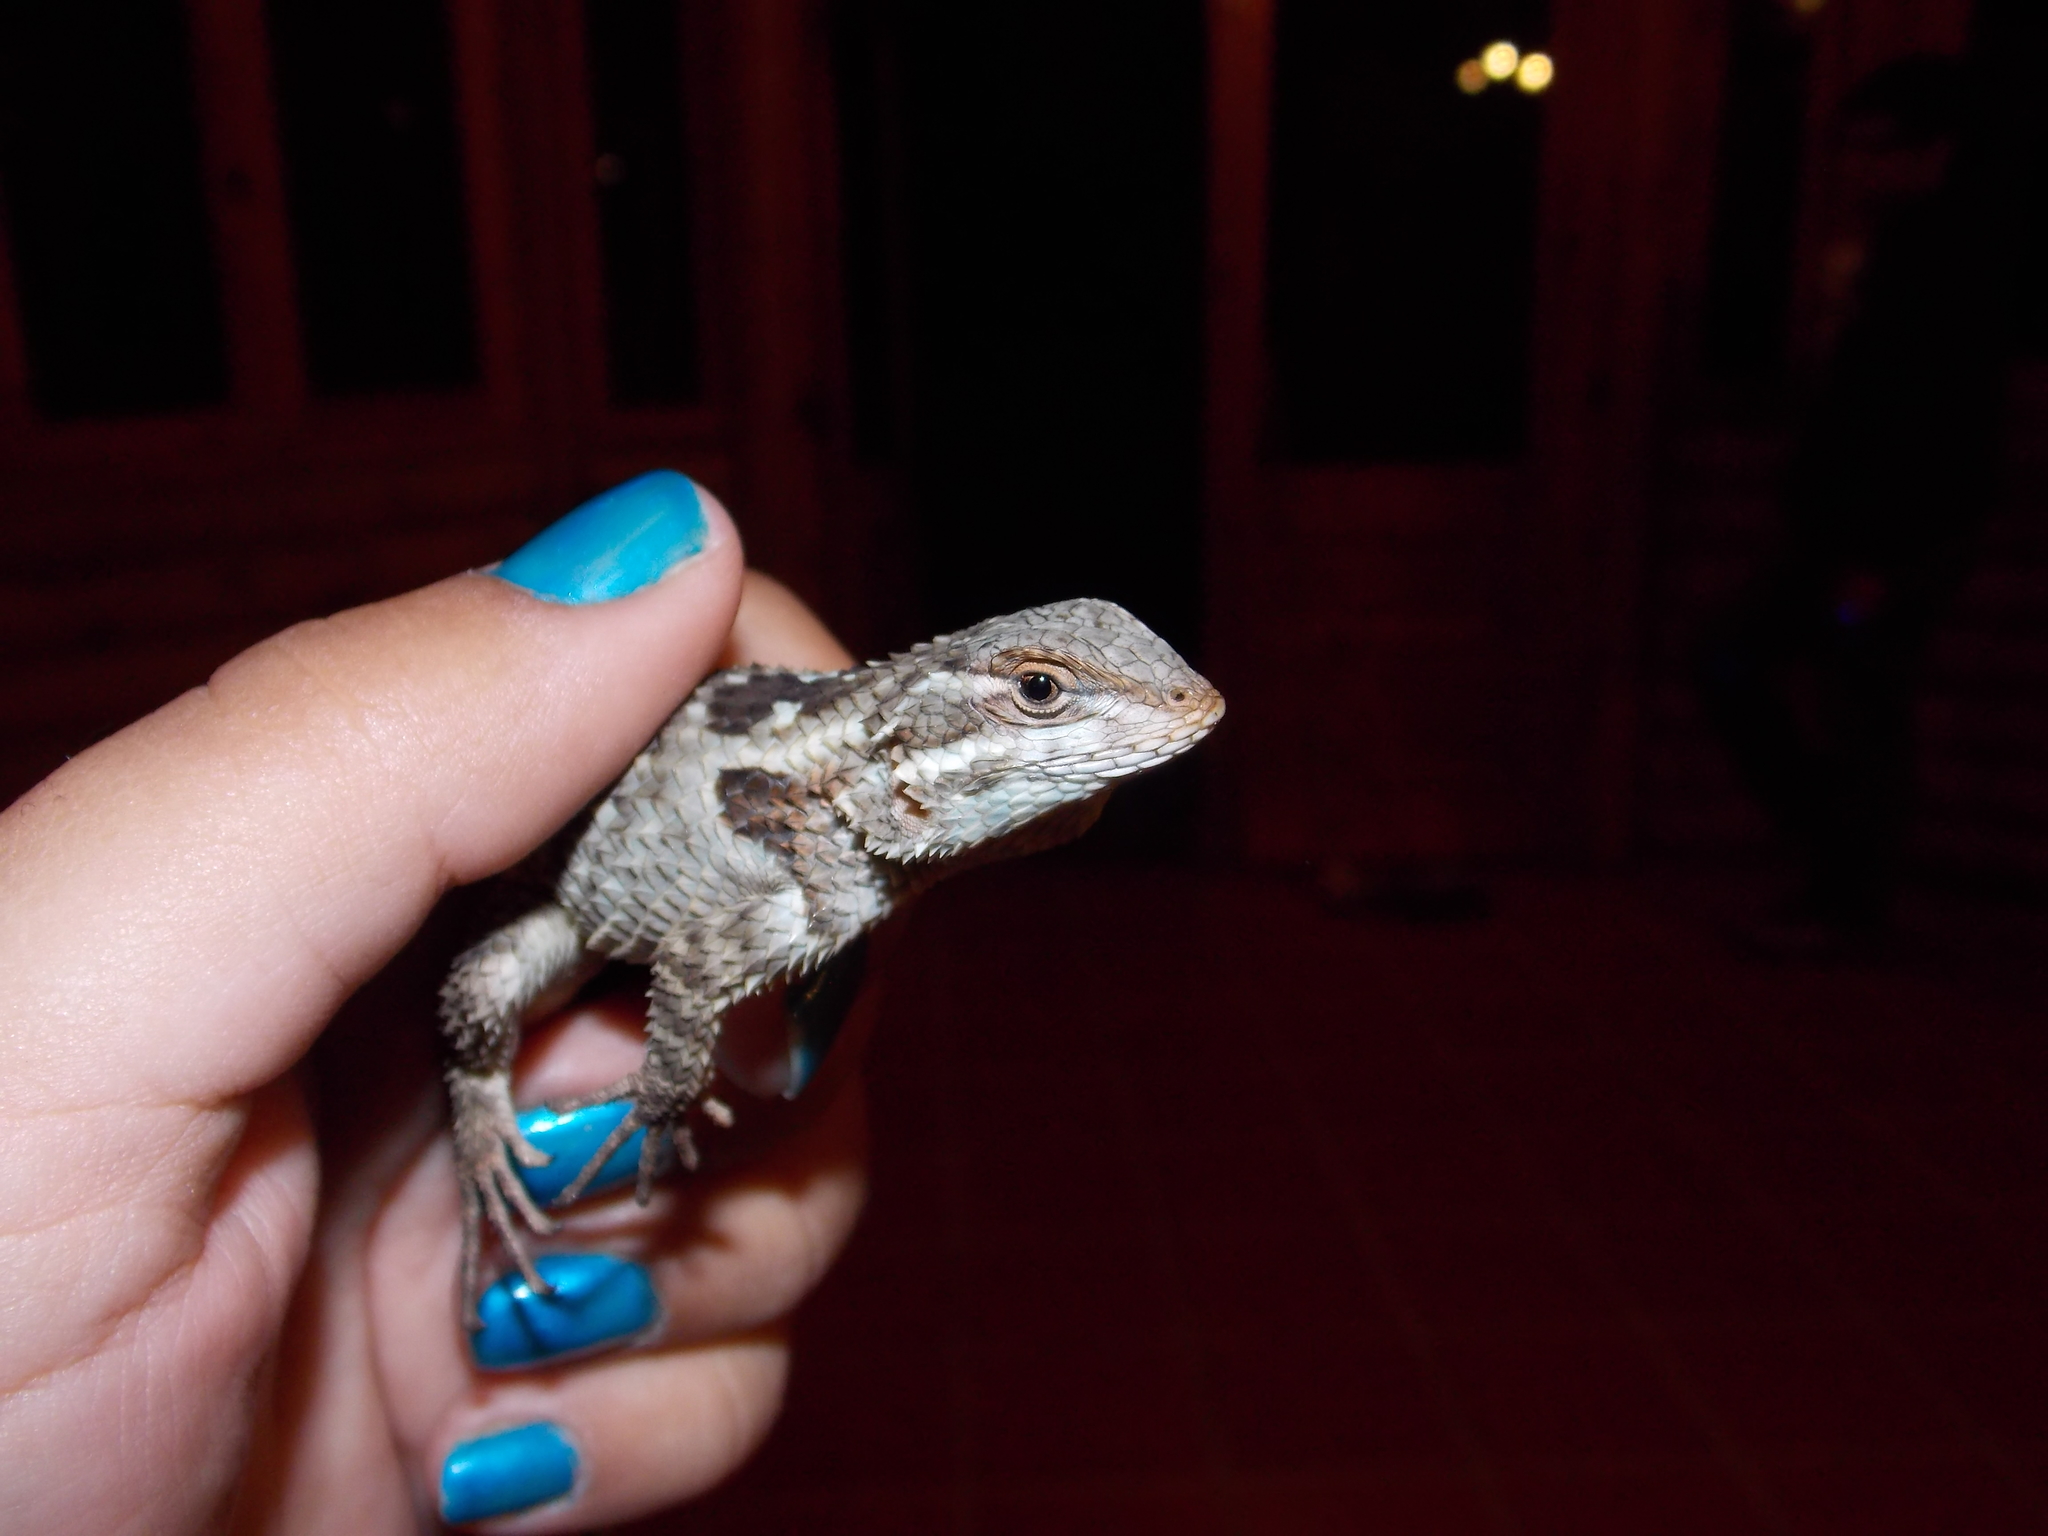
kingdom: Animalia
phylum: Chordata
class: Squamata
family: Phrynosomatidae
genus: Sceloporus
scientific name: Sceloporus torquatus
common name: Central plateau torquate lizard [melanogaster]
